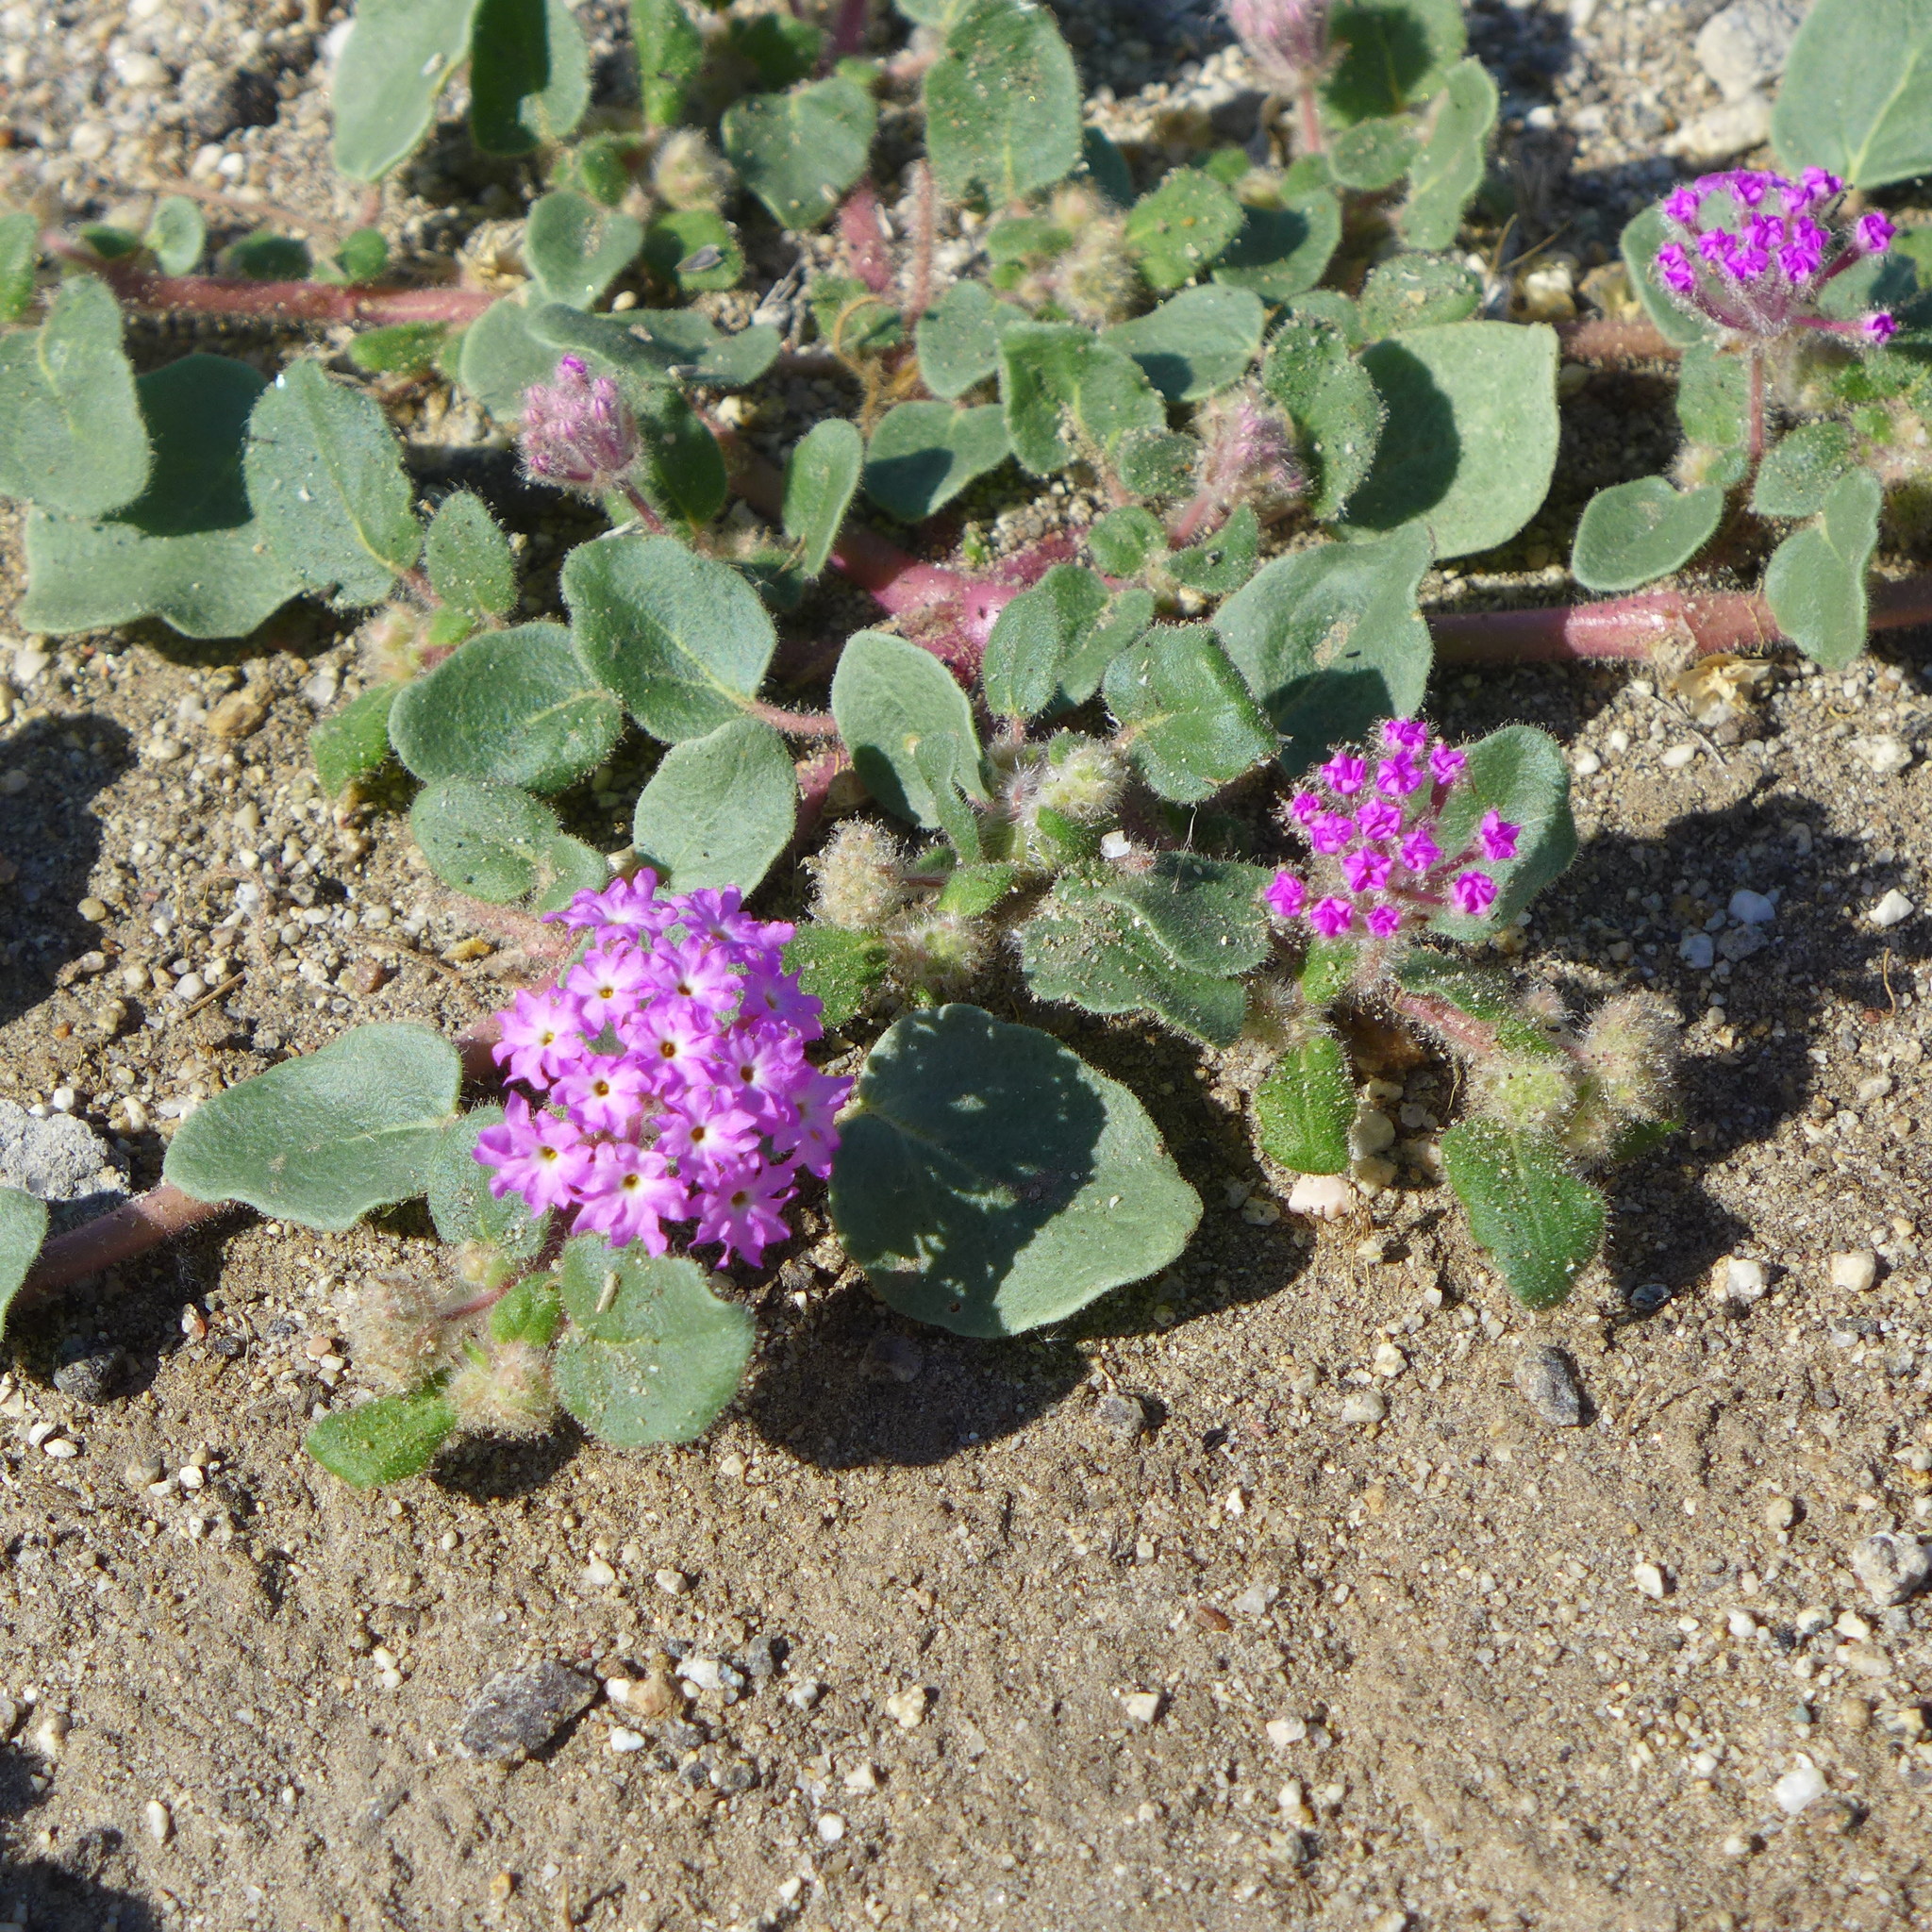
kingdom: Plantae
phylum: Tracheophyta
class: Magnoliopsida
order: Caryophyllales
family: Nyctaginaceae
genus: Abronia
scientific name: Abronia villosa
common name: Desert sand-verbena
